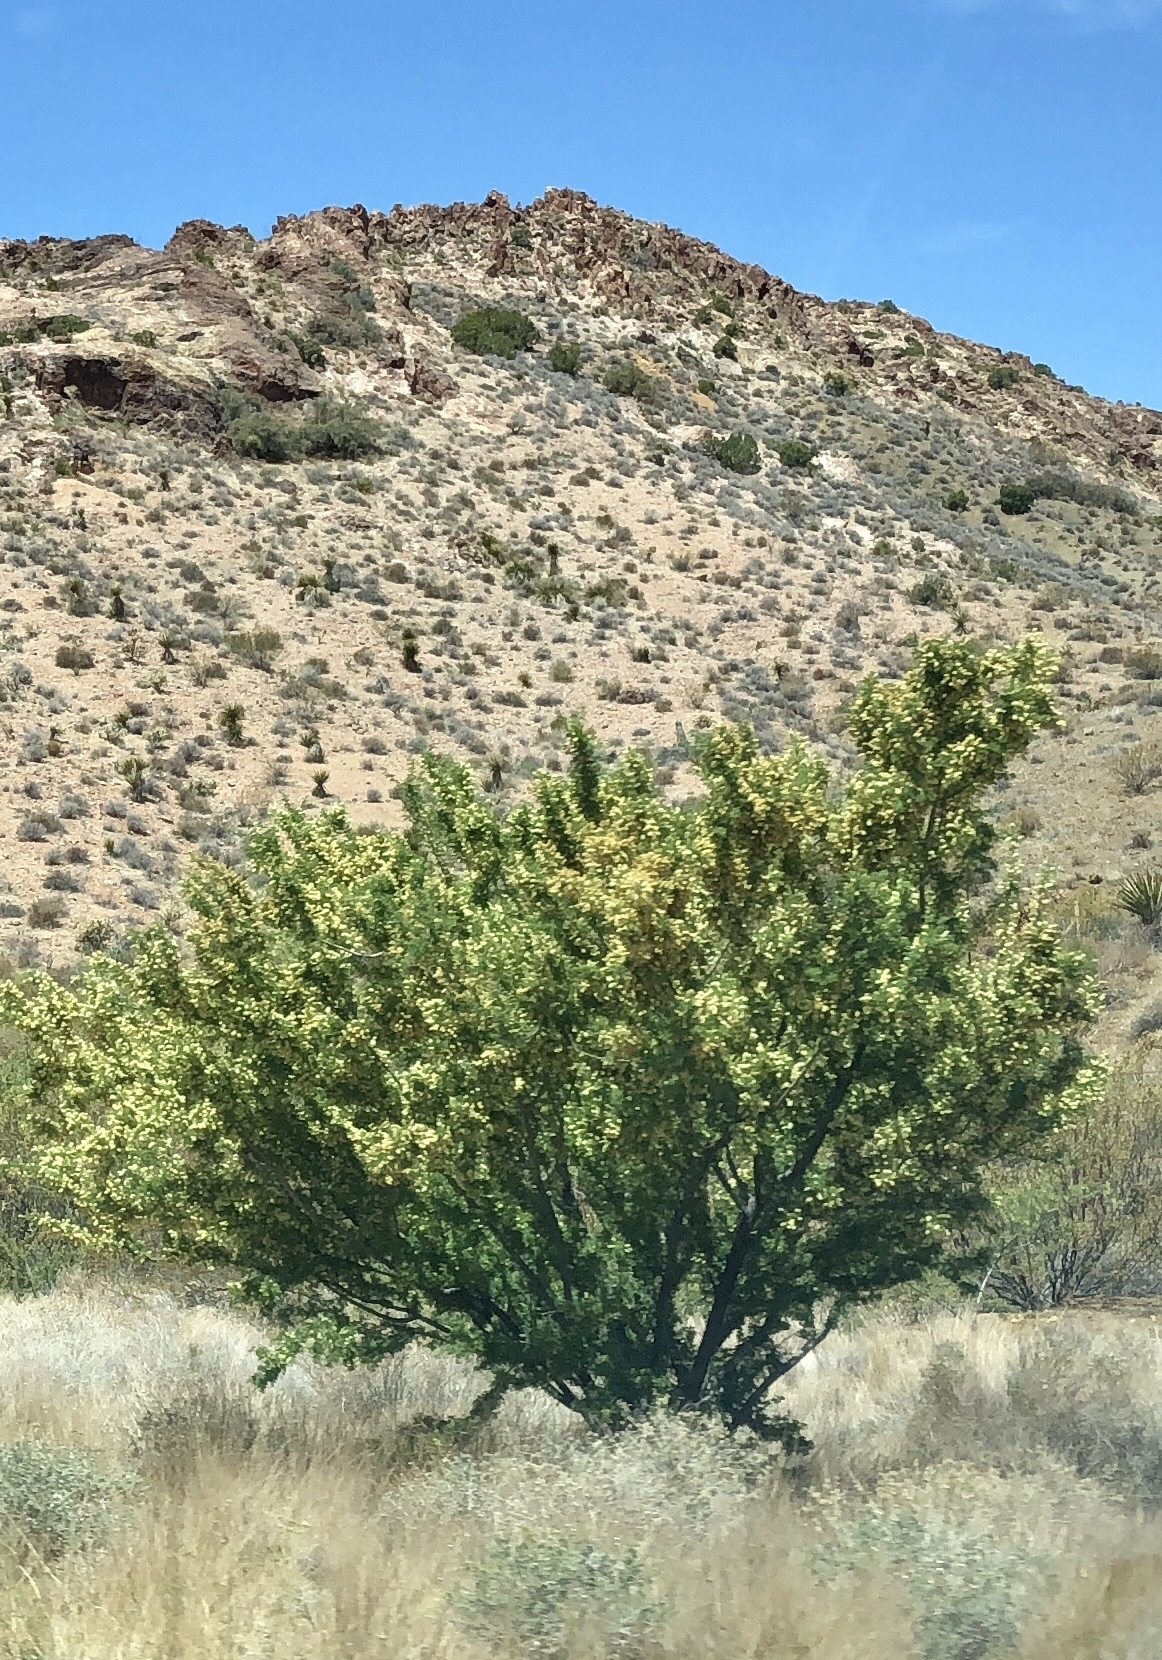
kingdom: Plantae
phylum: Tracheophyta
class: Magnoliopsida
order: Fabales
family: Fabaceae
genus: Senegalia
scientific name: Senegalia greggii
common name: Texas-mimosa
